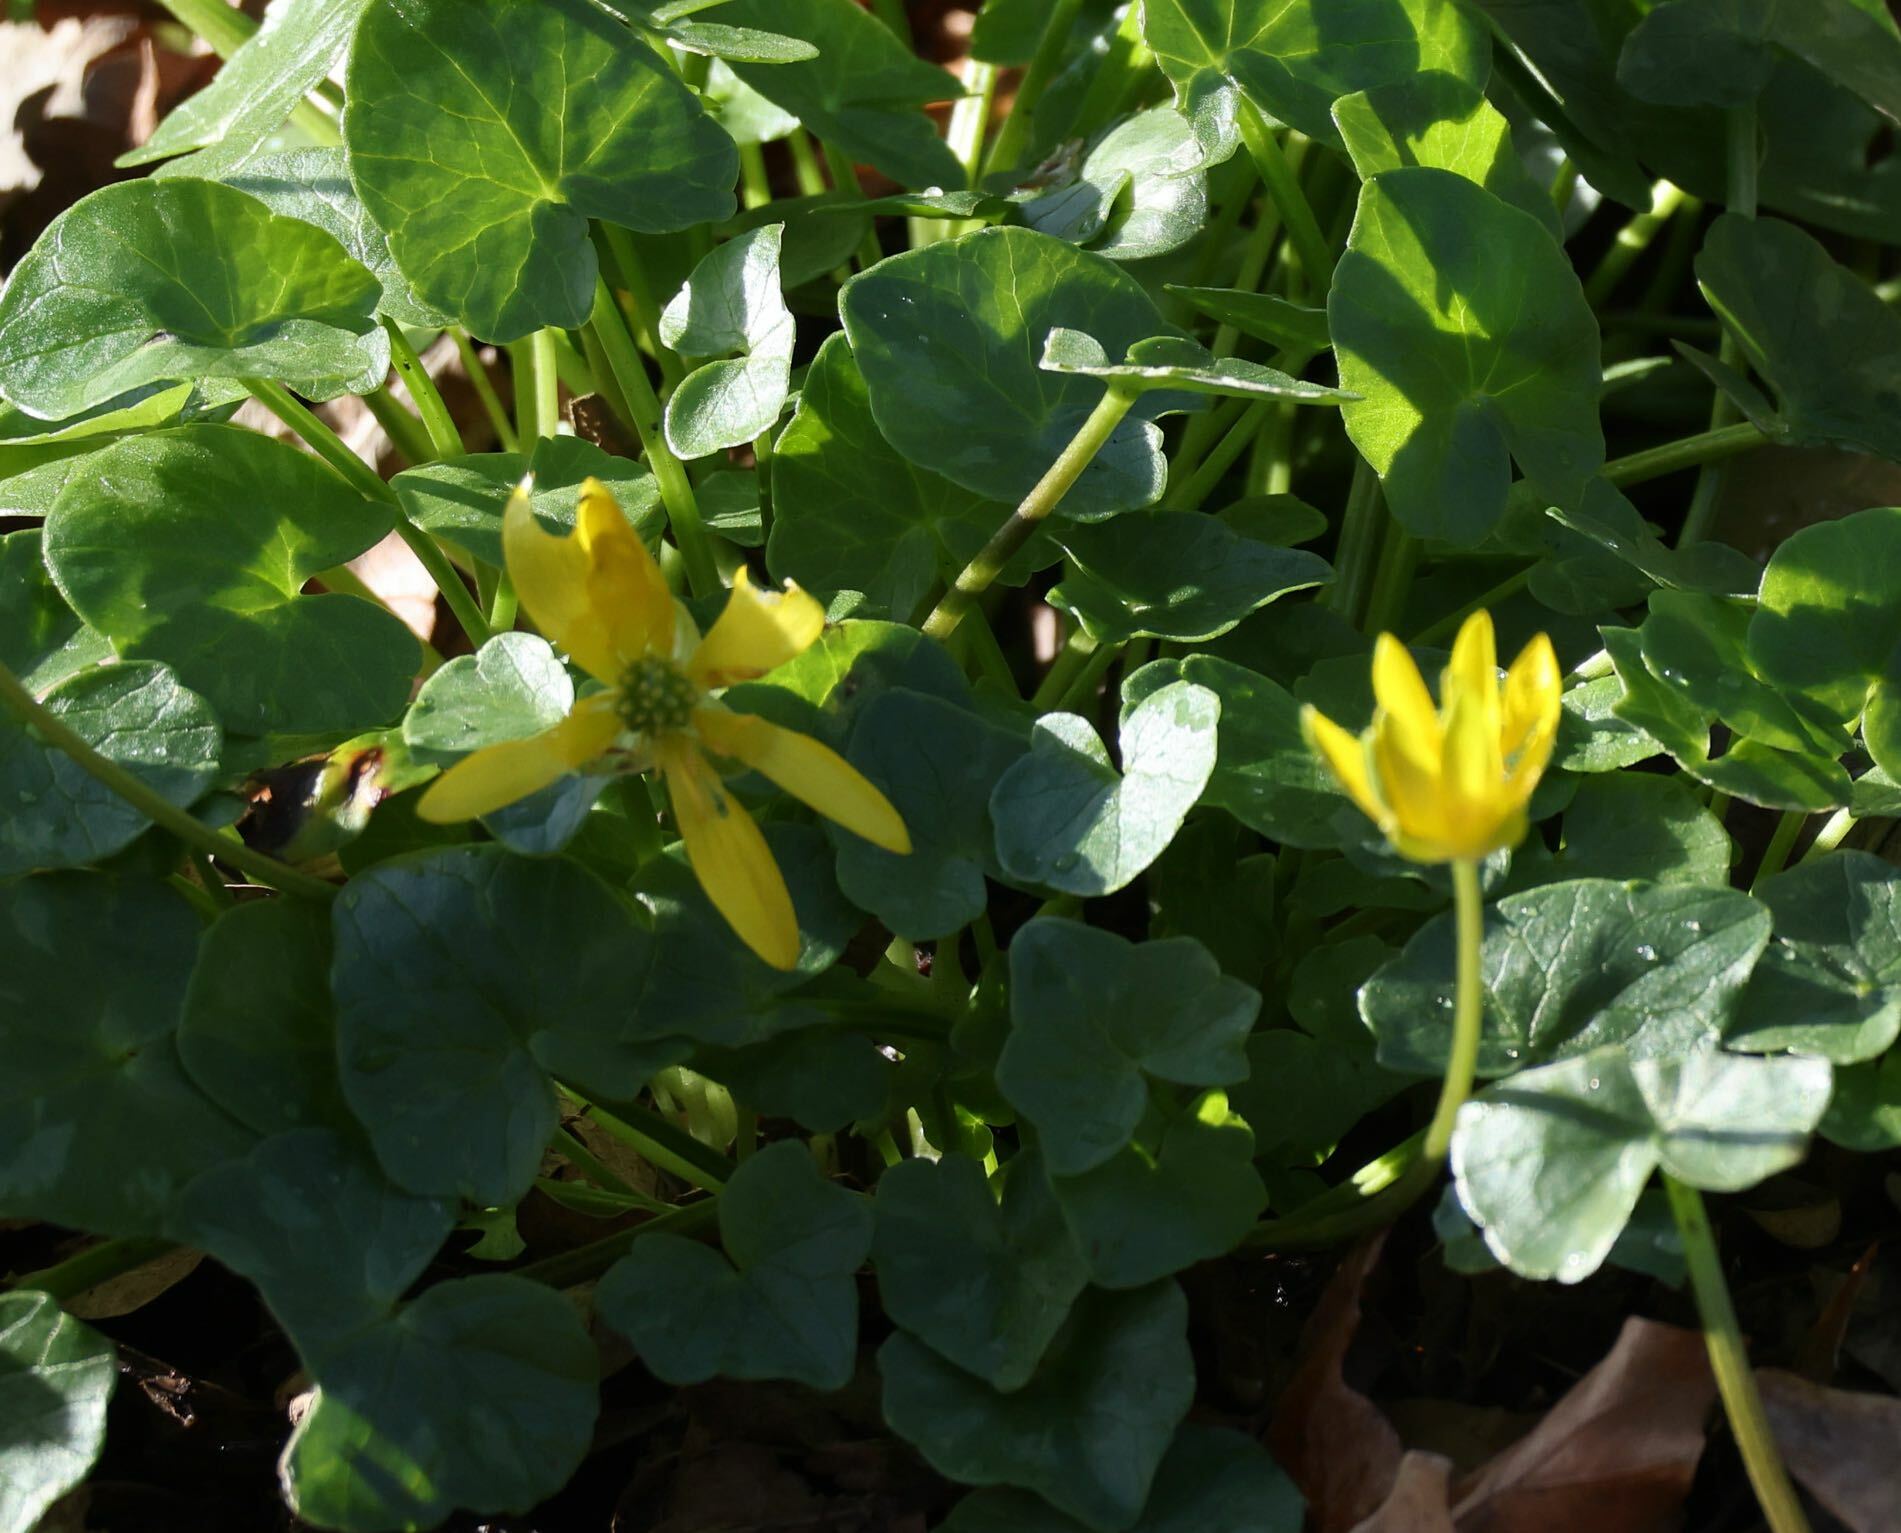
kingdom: Plantae
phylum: Tracheophyta
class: Magnoliopsida
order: Ranunculales
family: Ranunculaceae
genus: Ficaria
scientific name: Ficaria verna
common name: Lesser celandine
